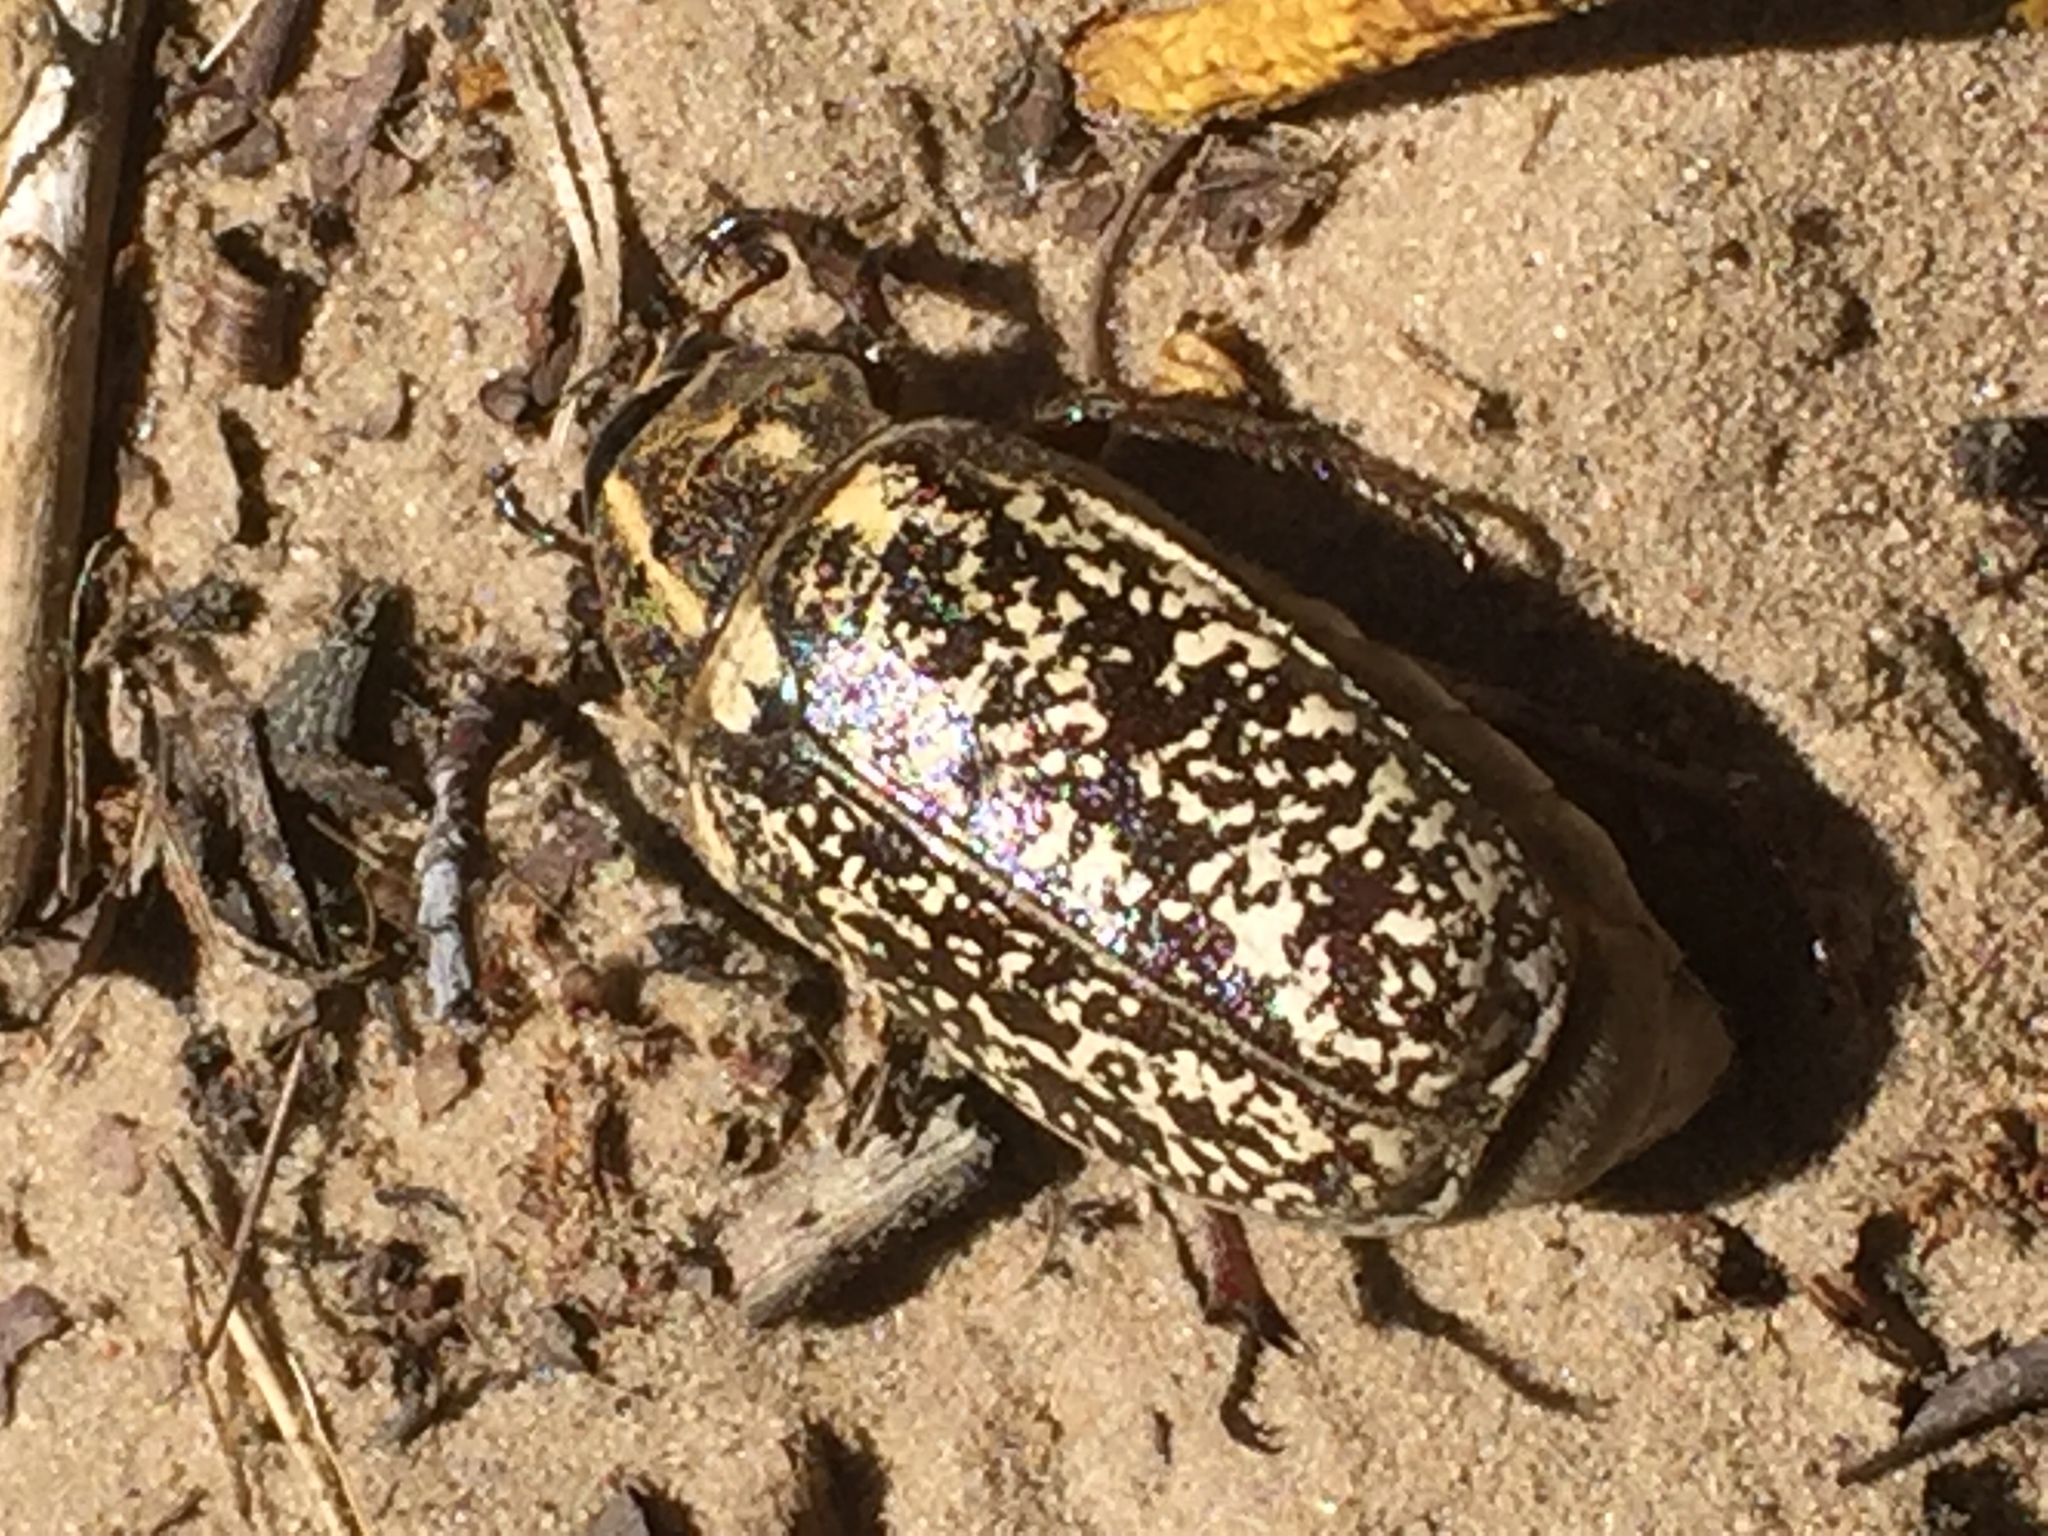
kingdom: Animalia
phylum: Arthropoda
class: Insecta
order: Coleoptera
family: Scarabaeidae
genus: Polyphylla
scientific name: Polyphylla fullo
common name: Pine chafer
